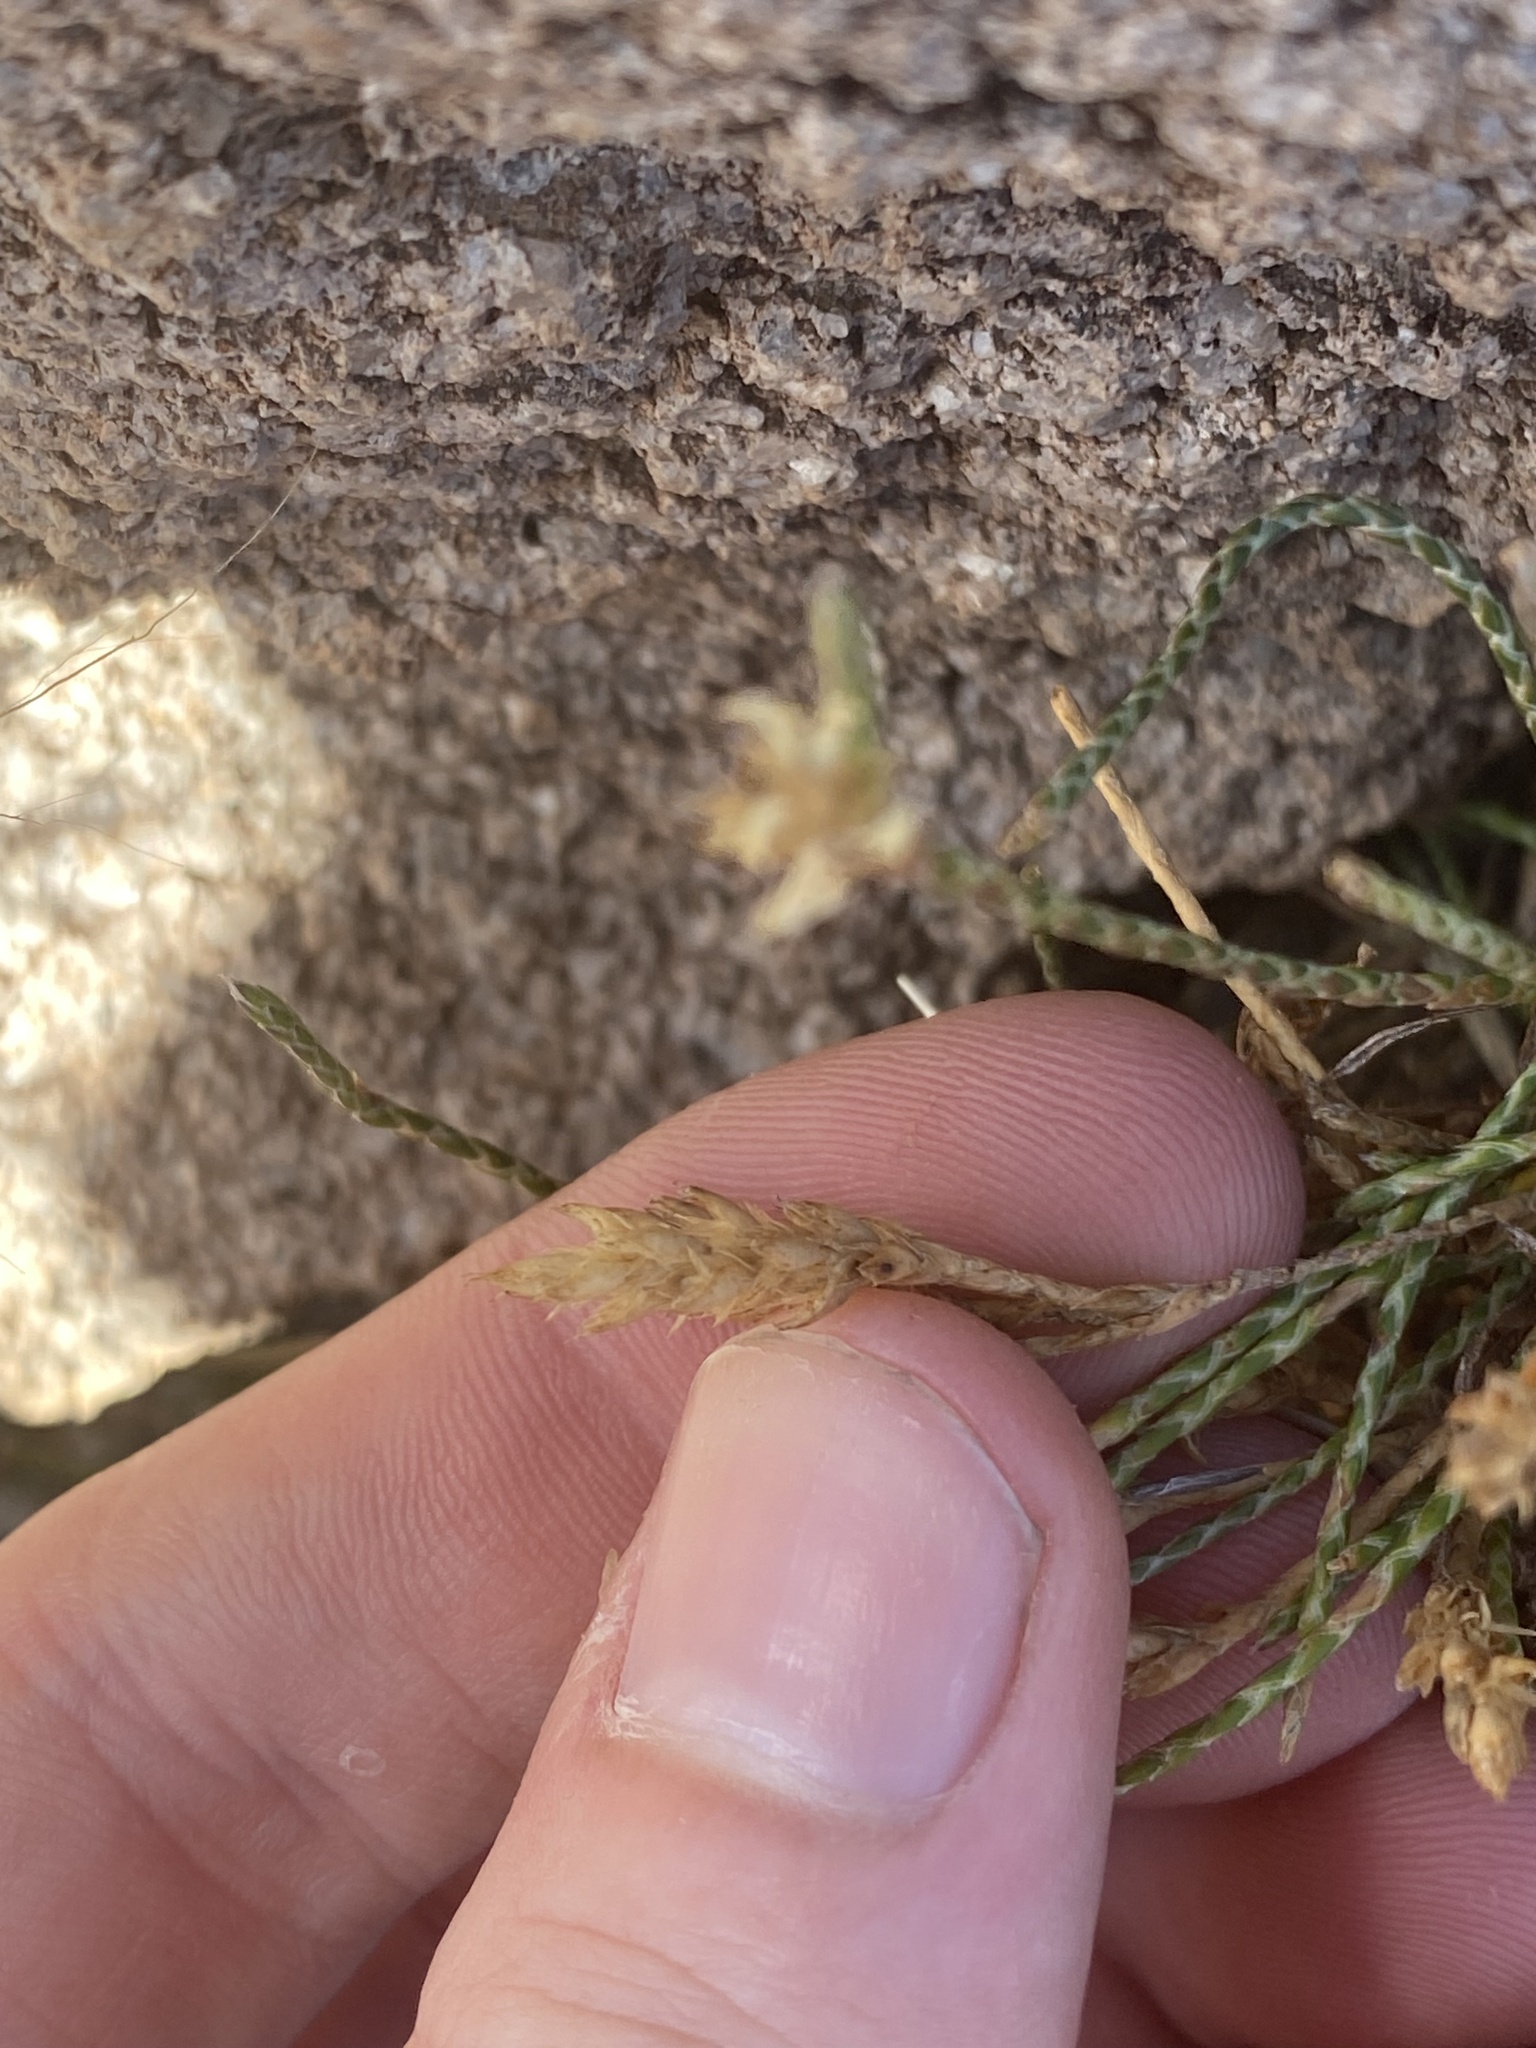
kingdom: Plantae
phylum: Tracheophyta
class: Magnoliopsida
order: Lamiales
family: Acanthaceae
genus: Elytraria
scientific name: Elytraria imbricata
